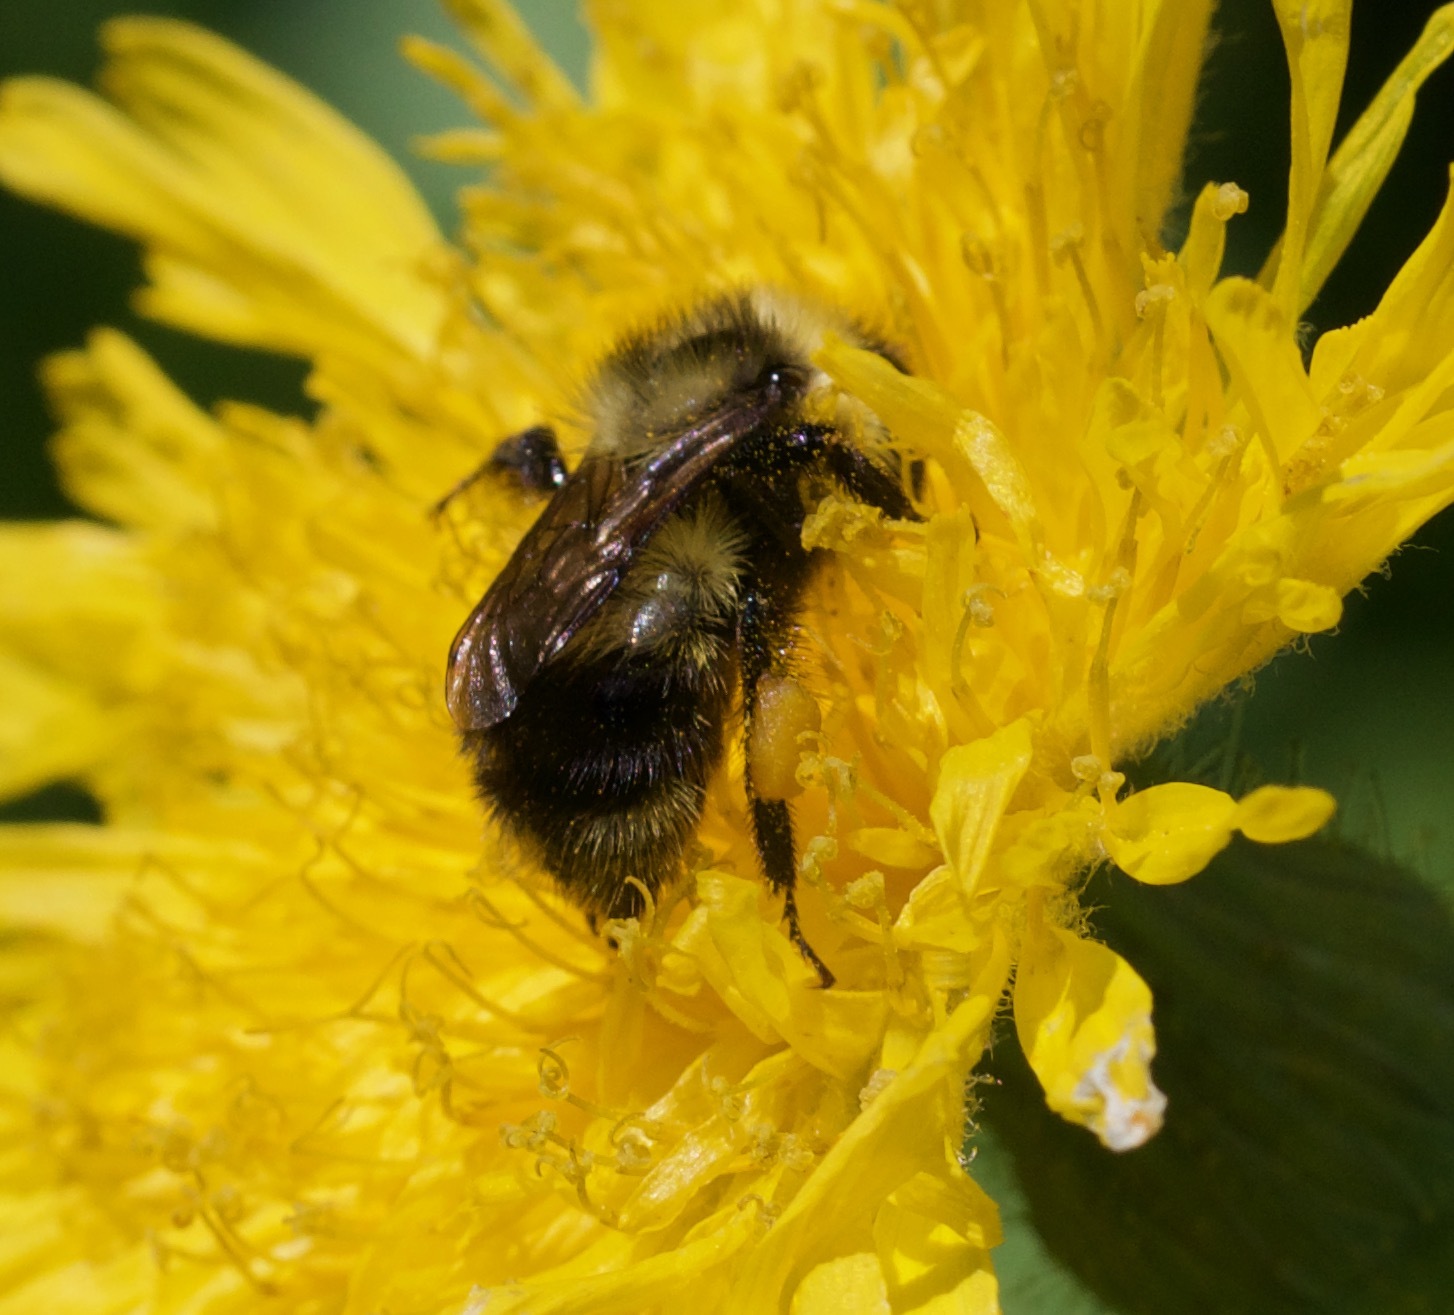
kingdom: Animalia
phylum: Arthropoda
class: Insecta
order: Hymenoptera
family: Apidae
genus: Bombus
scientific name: Bombus rufocinctus
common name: Red-belted bumble bee
